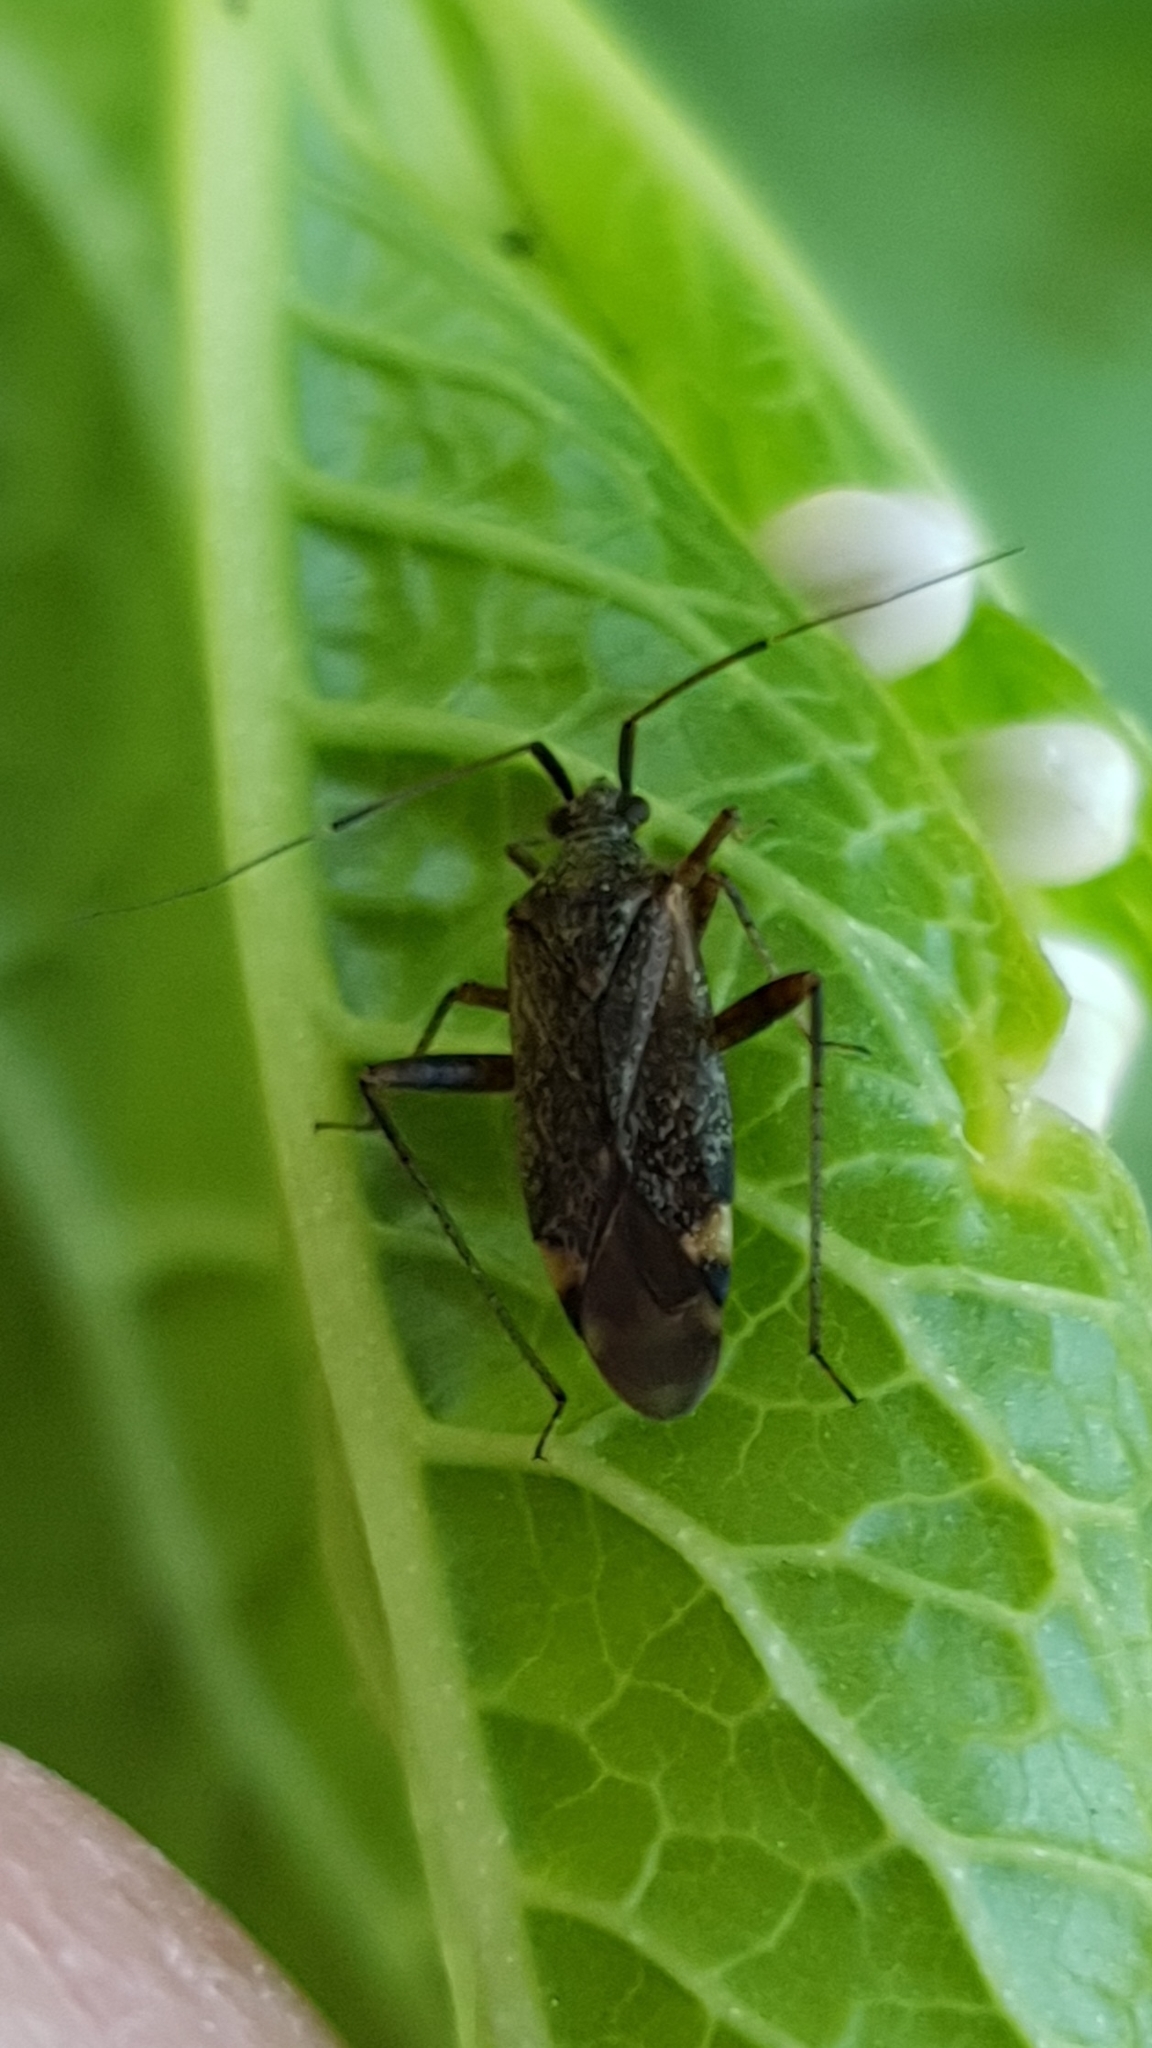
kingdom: Animalia
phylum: Arthropoda
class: Insecta
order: Hemiptera
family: Miridae
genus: Closterotomus
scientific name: Closterotomus fulvomaculatus
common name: Spotted plant bug
